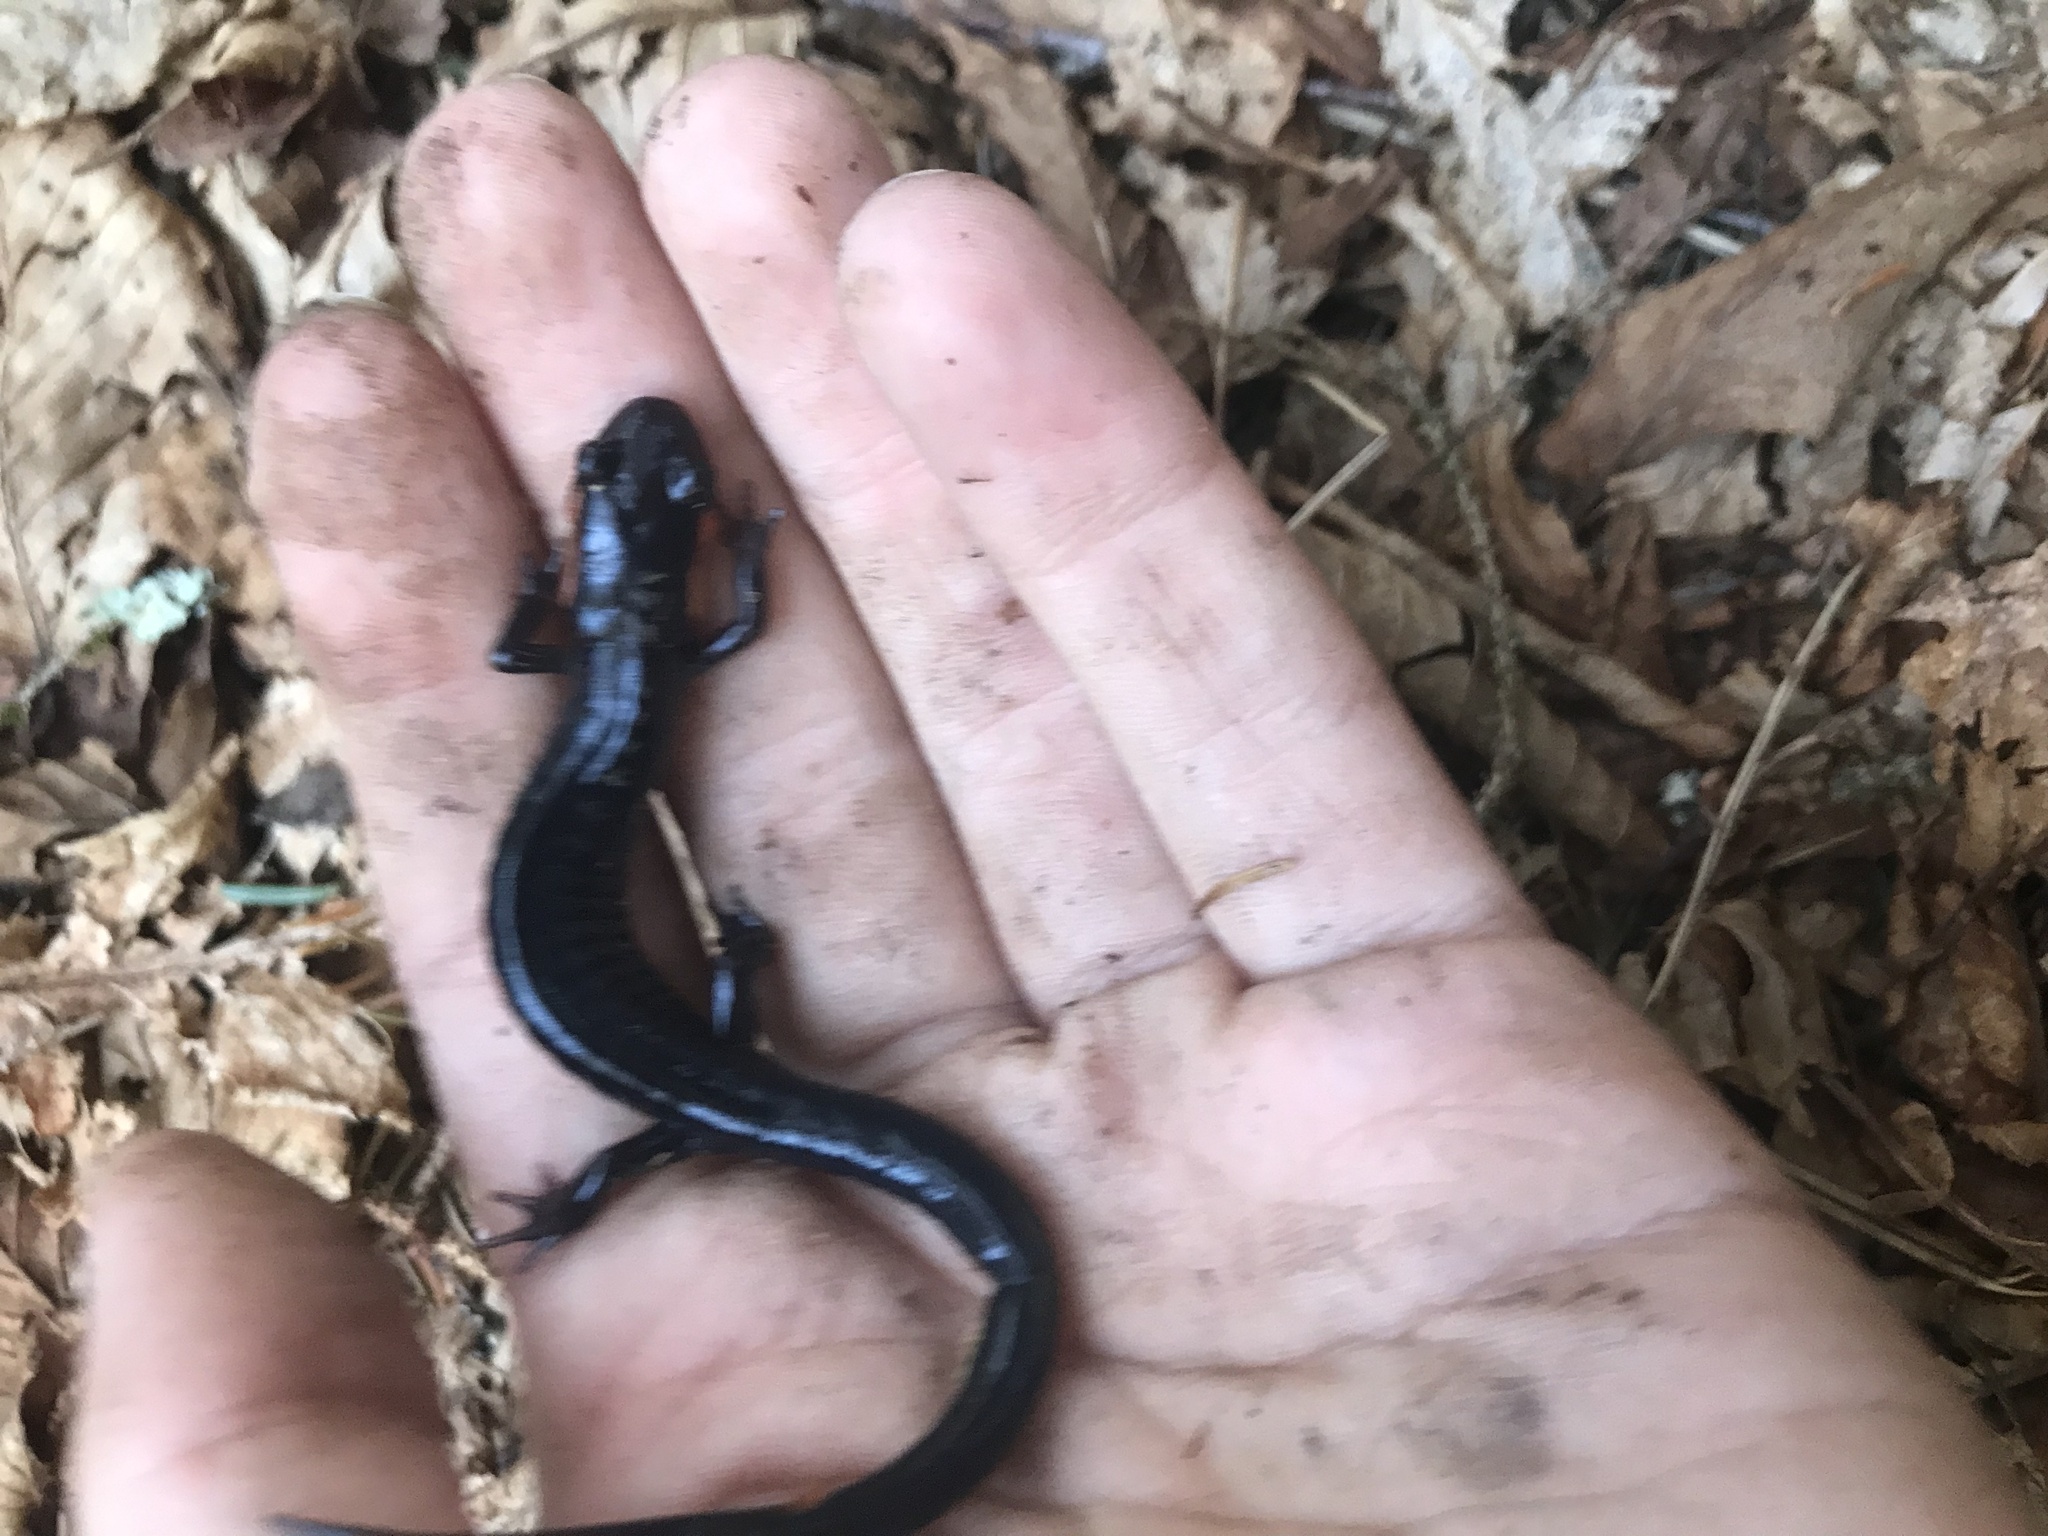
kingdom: Animalia
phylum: Chordata
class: Amphibia
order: Caudata
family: Plethodontidae
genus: Plethodon
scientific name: Plethodon jordani
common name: Red-cheeked salamander
